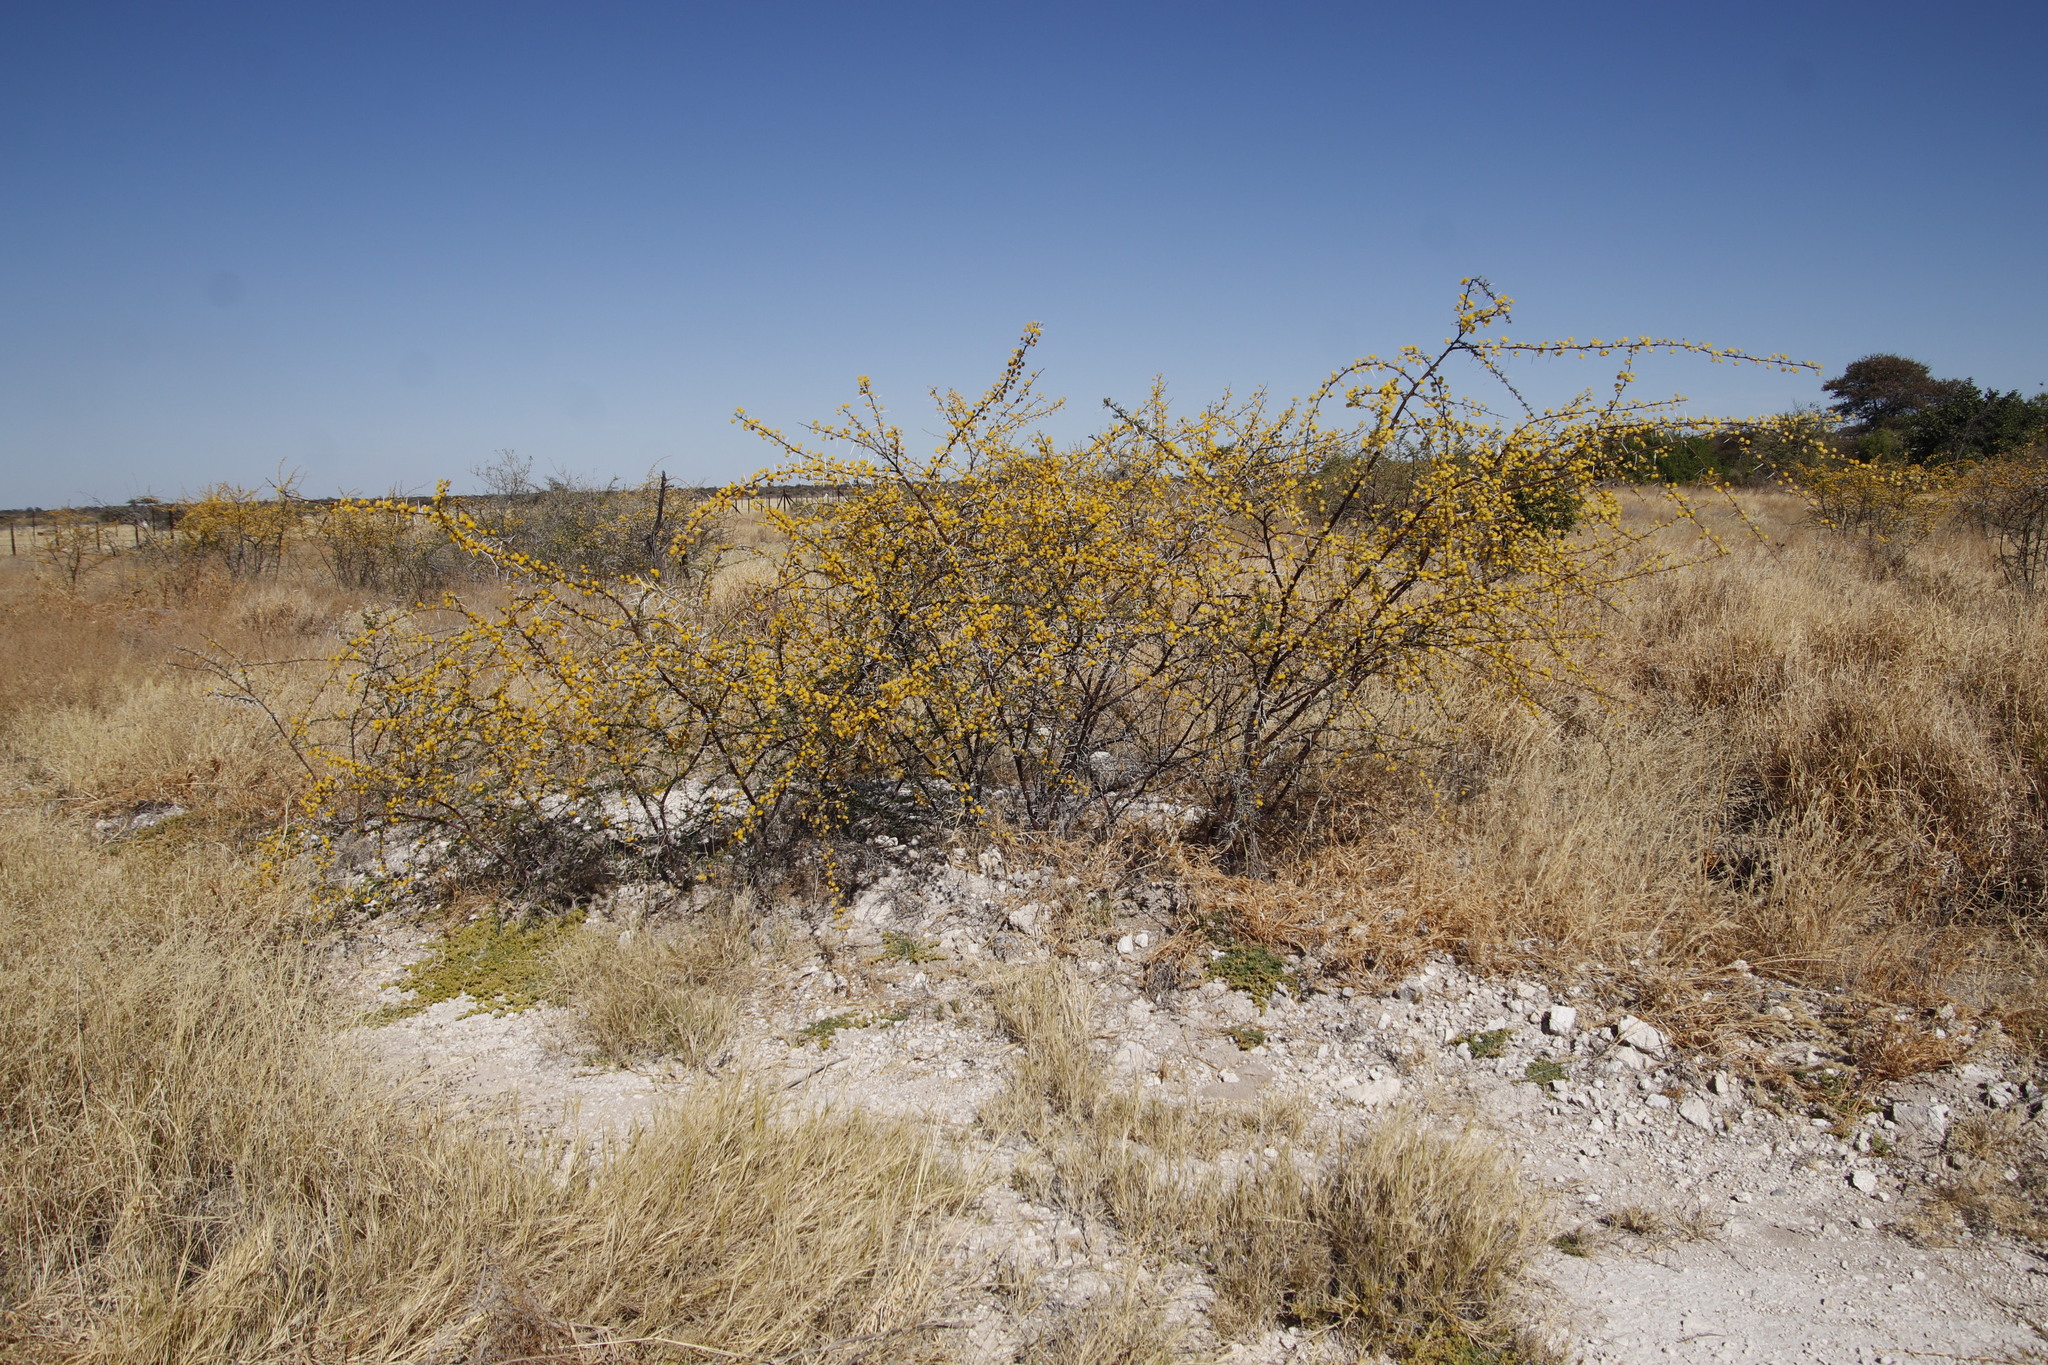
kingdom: Plantae
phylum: Tracheophyta
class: Magnoliopsida
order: Fabales
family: Fabaceae
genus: Vachellia
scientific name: Vachellia nebrownii
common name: Water acacia
